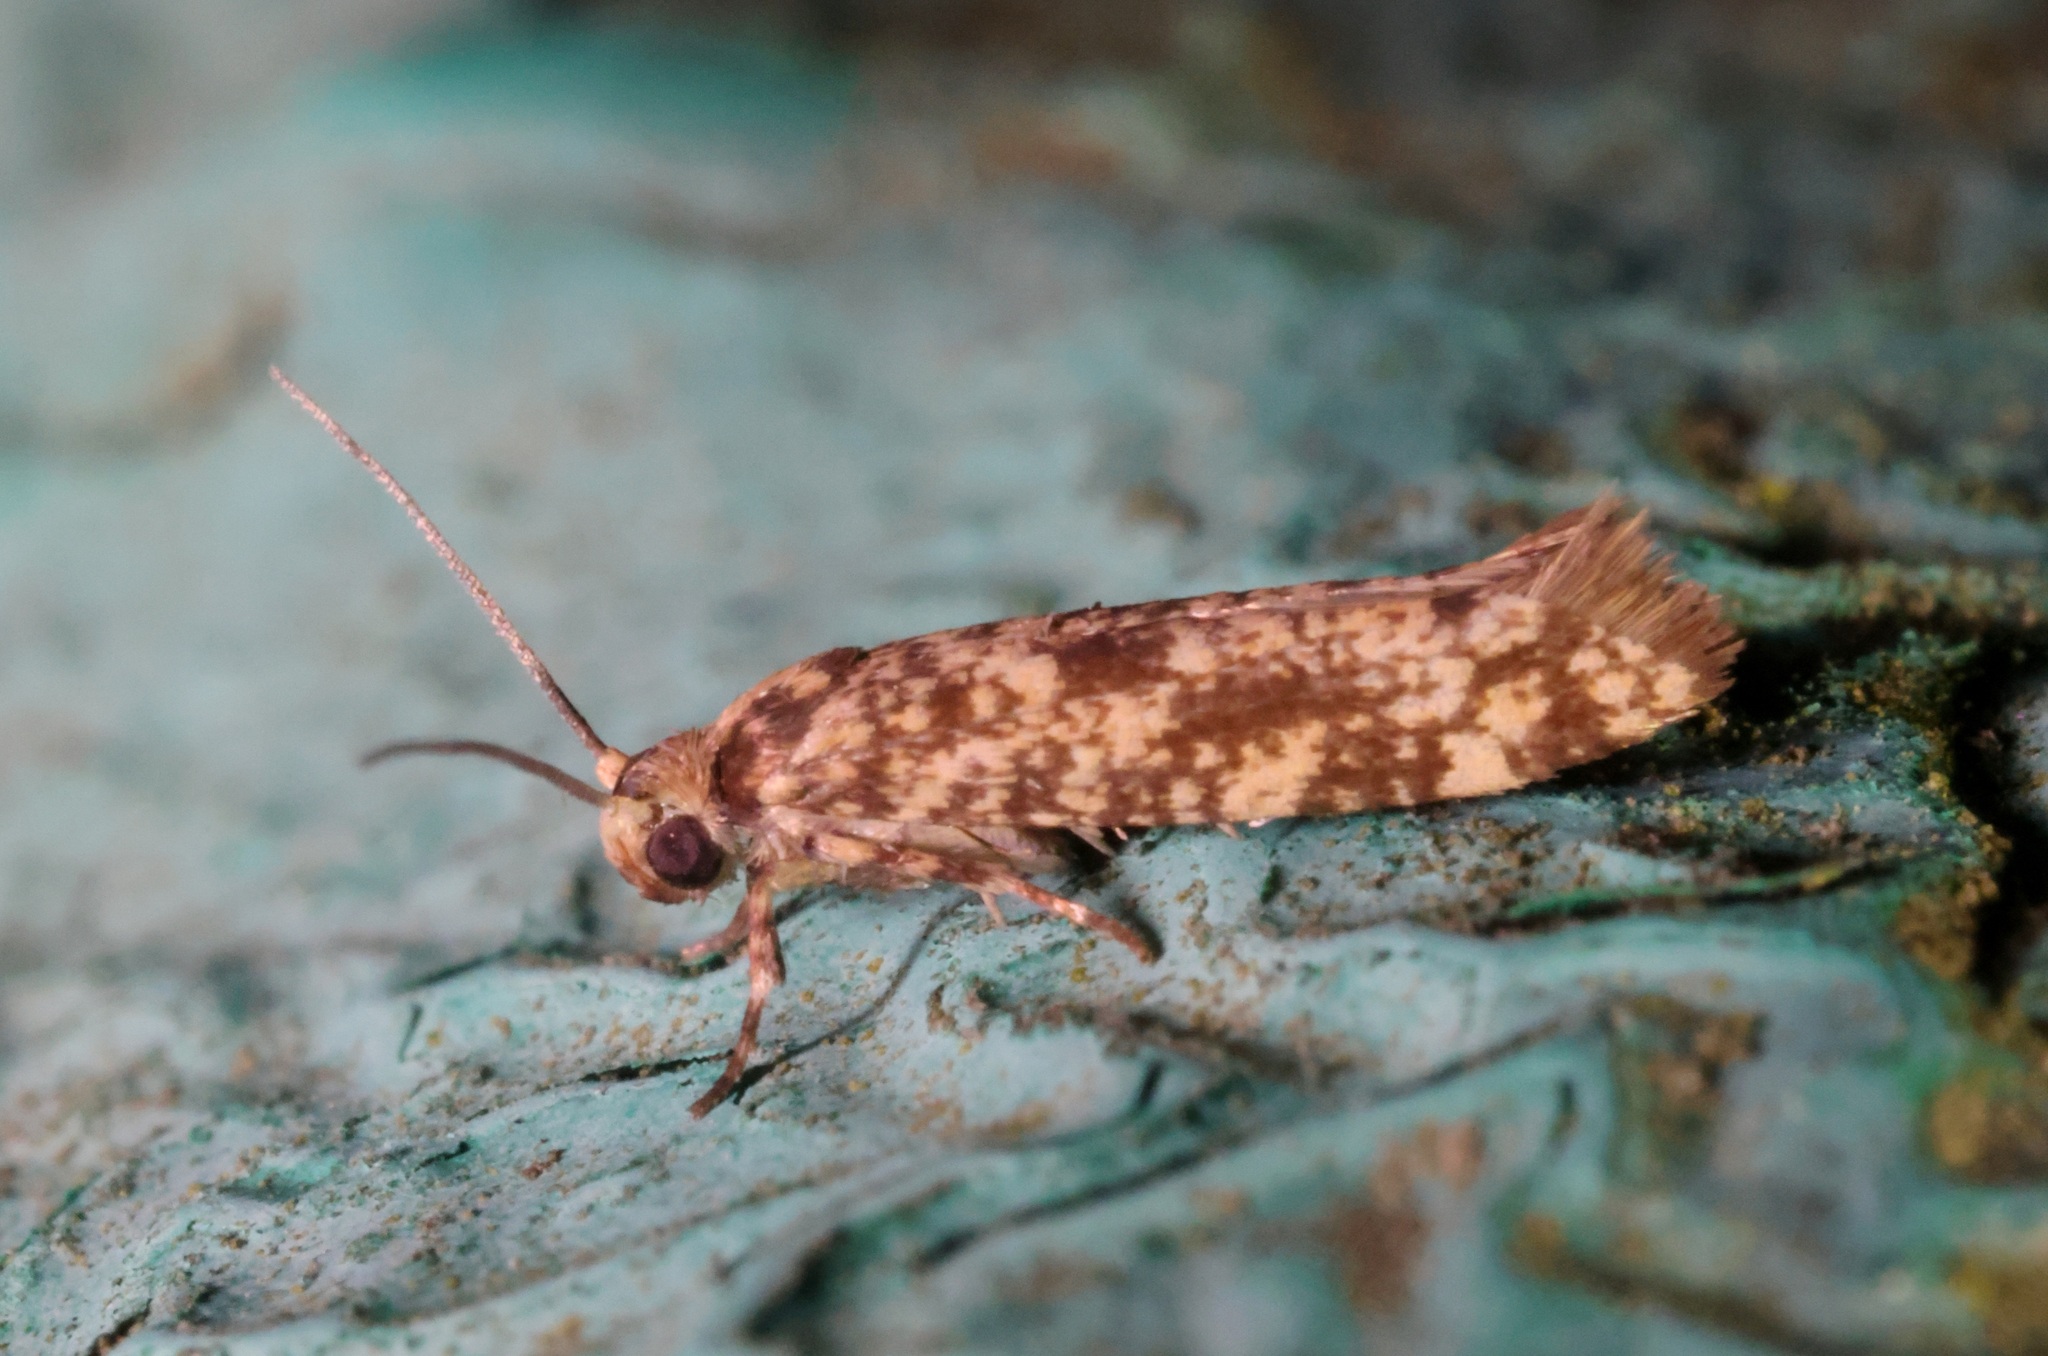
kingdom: Animalia
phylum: Arthropoda
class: Insecta
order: Lepidoptera
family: Praydidae
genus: Prays
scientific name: Prays
